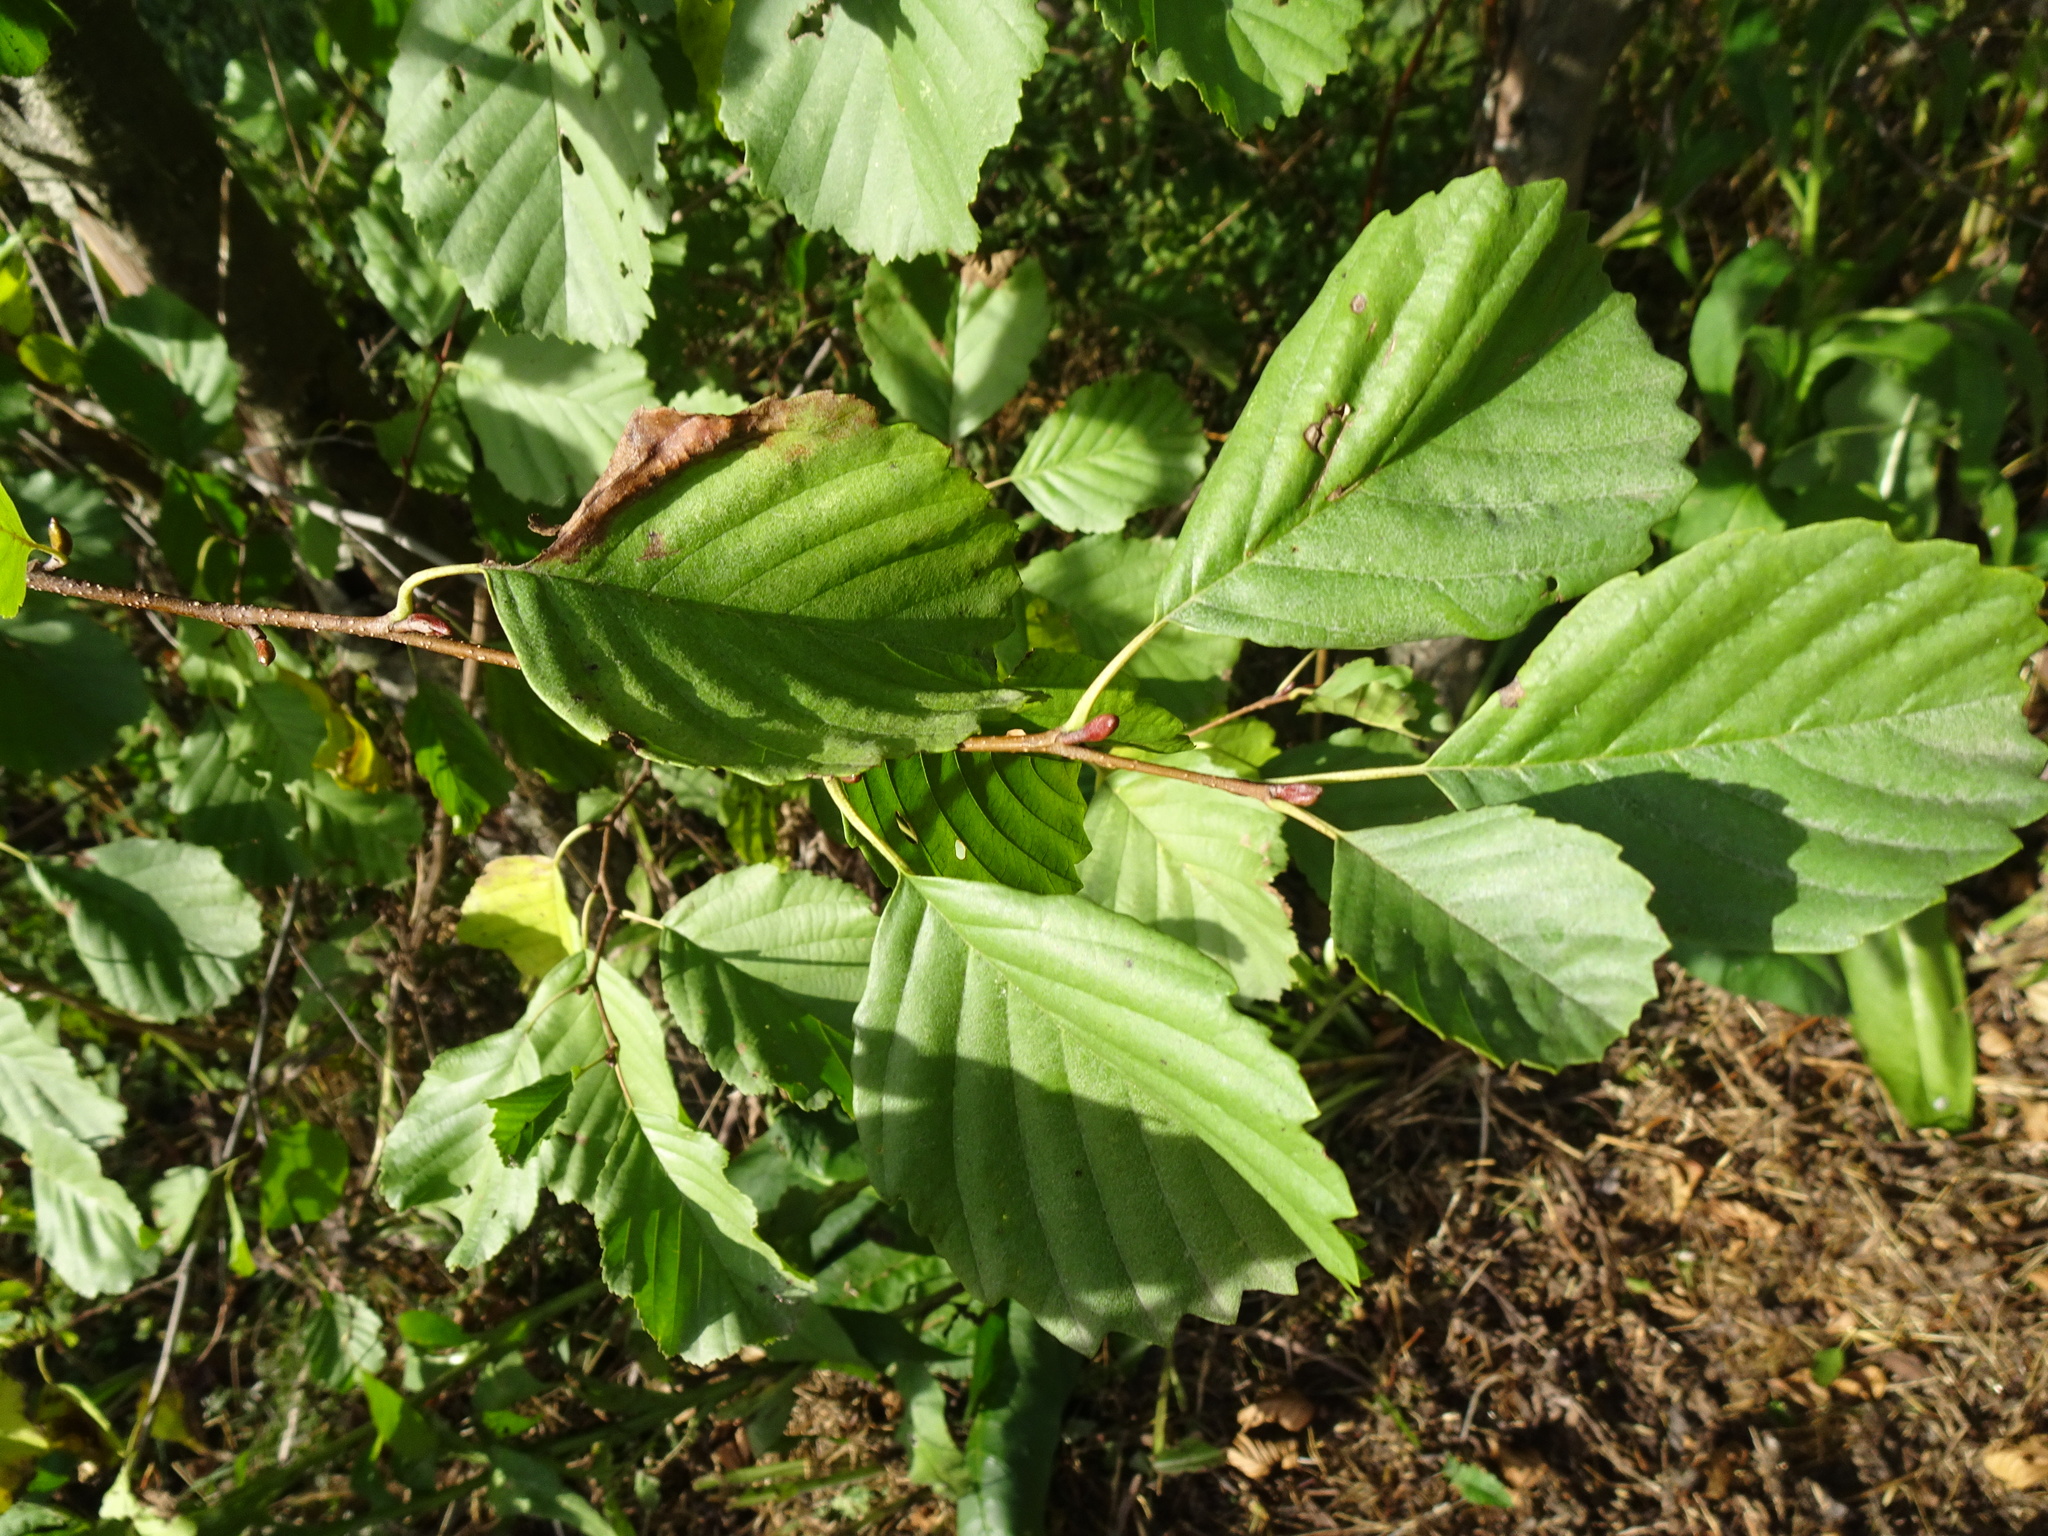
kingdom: Plantae
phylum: Tracheophyta
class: Magnoliopsida
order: Fagales
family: Betulaceae
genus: Alnus
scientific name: Alnus glutinosa
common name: Black alder
